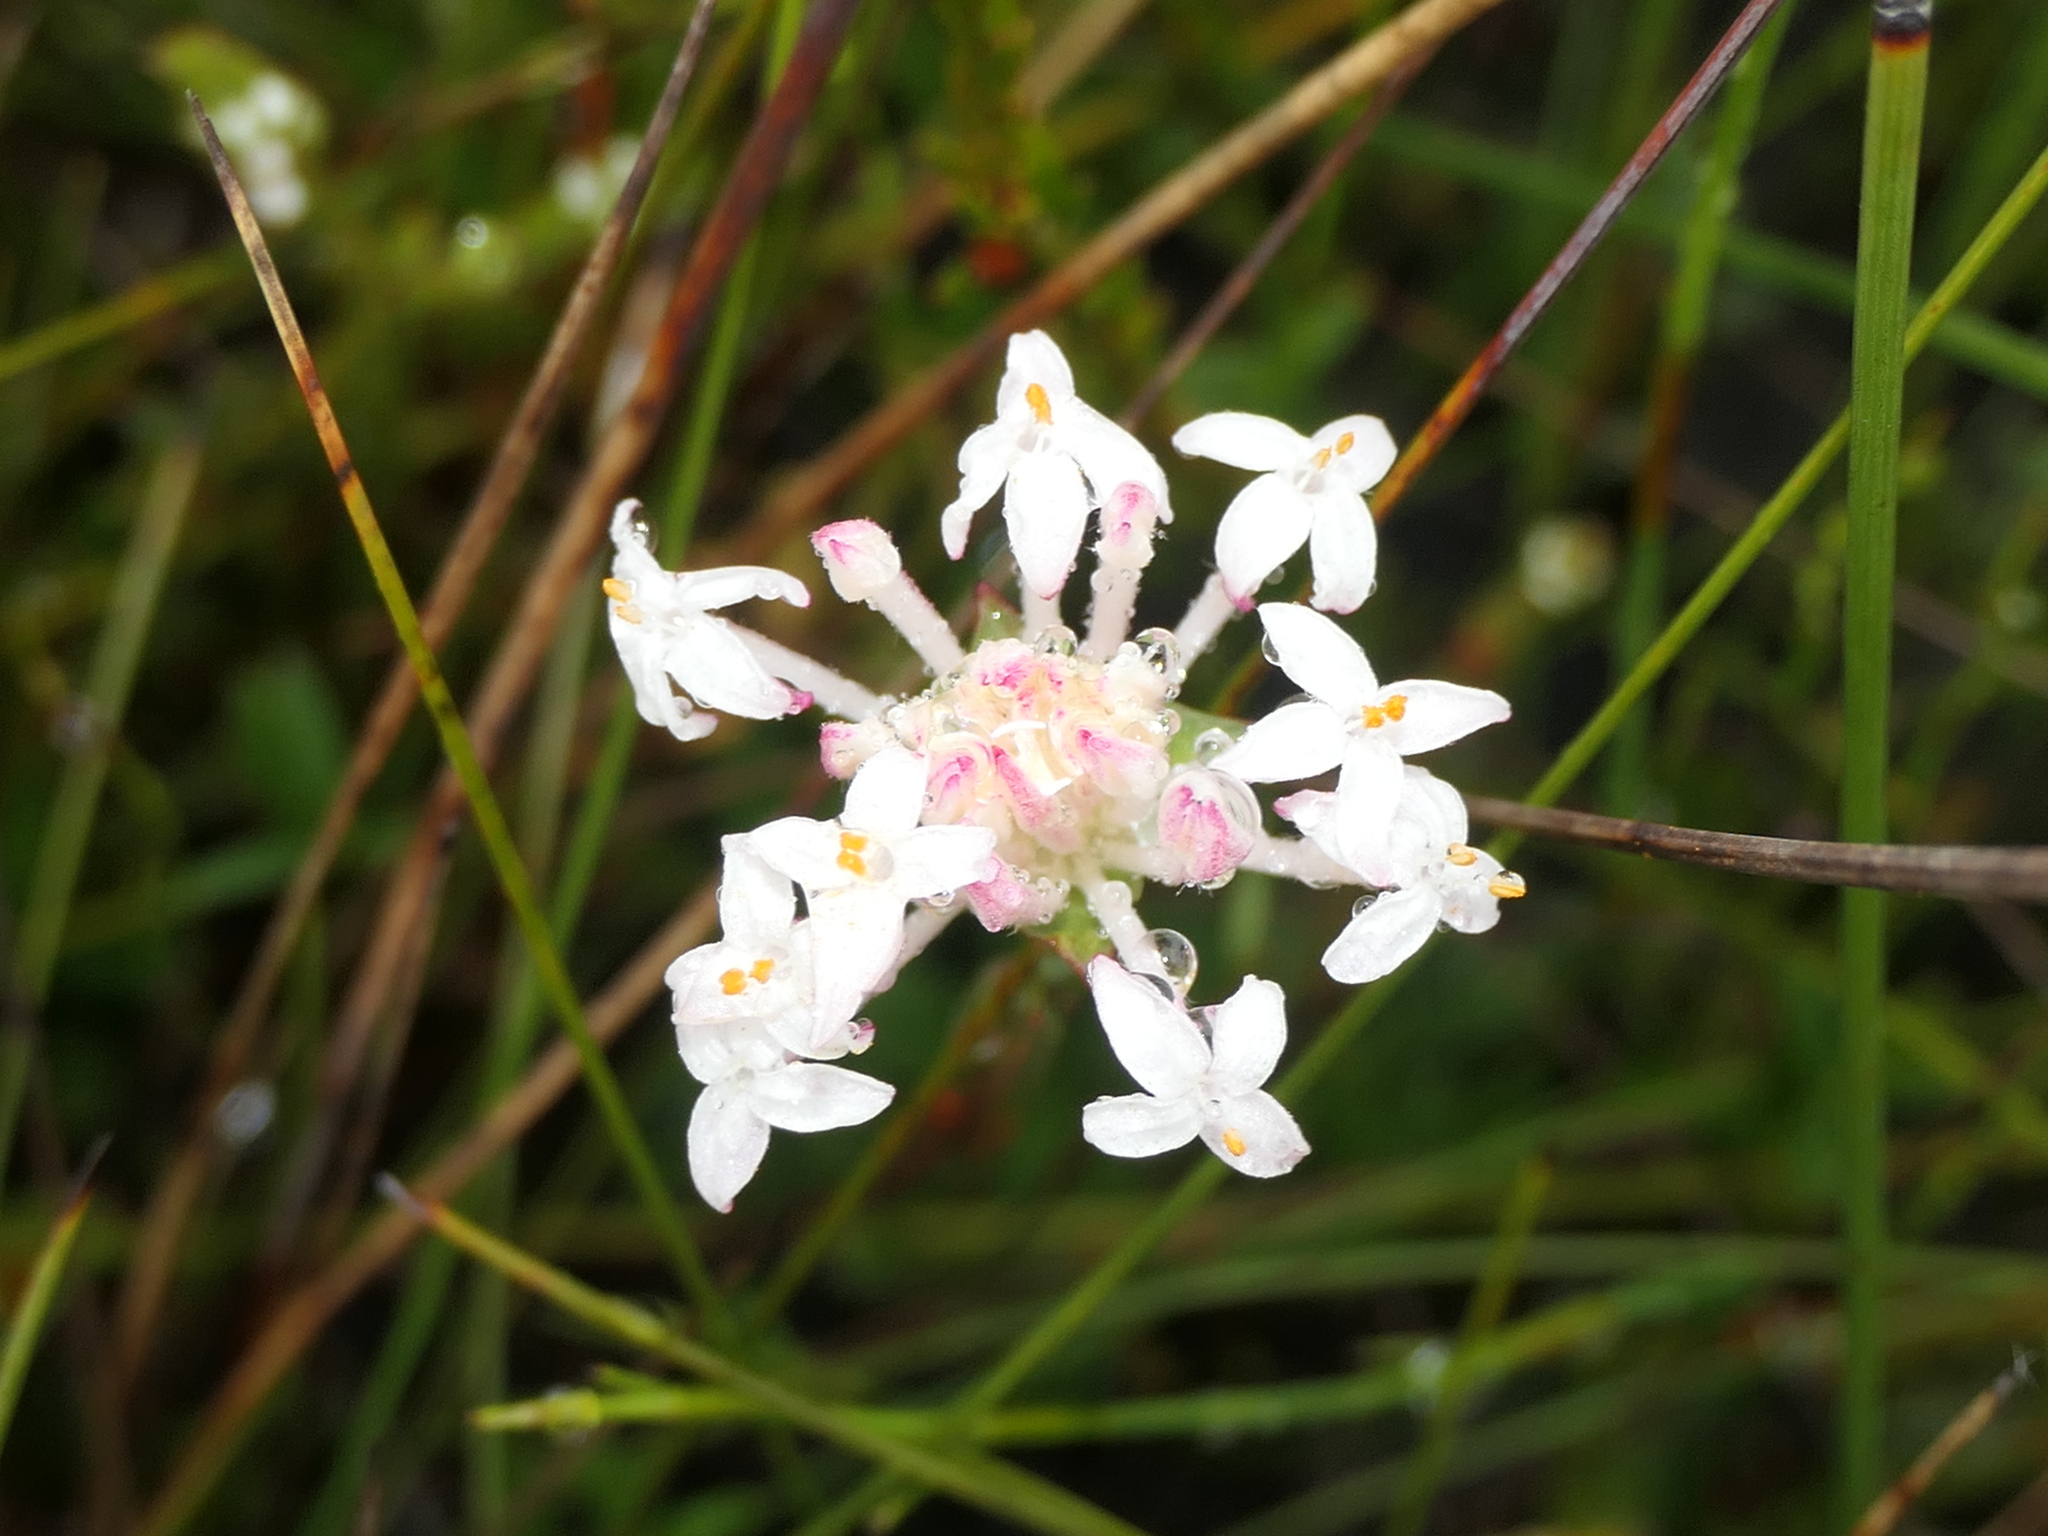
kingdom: Plantae
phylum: Tracheophyta
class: Magnoliopsida
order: Malvales
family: Thymelaeaceae
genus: Pimelea
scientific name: Pimelea linifolia
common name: Queen-of-the-bush
